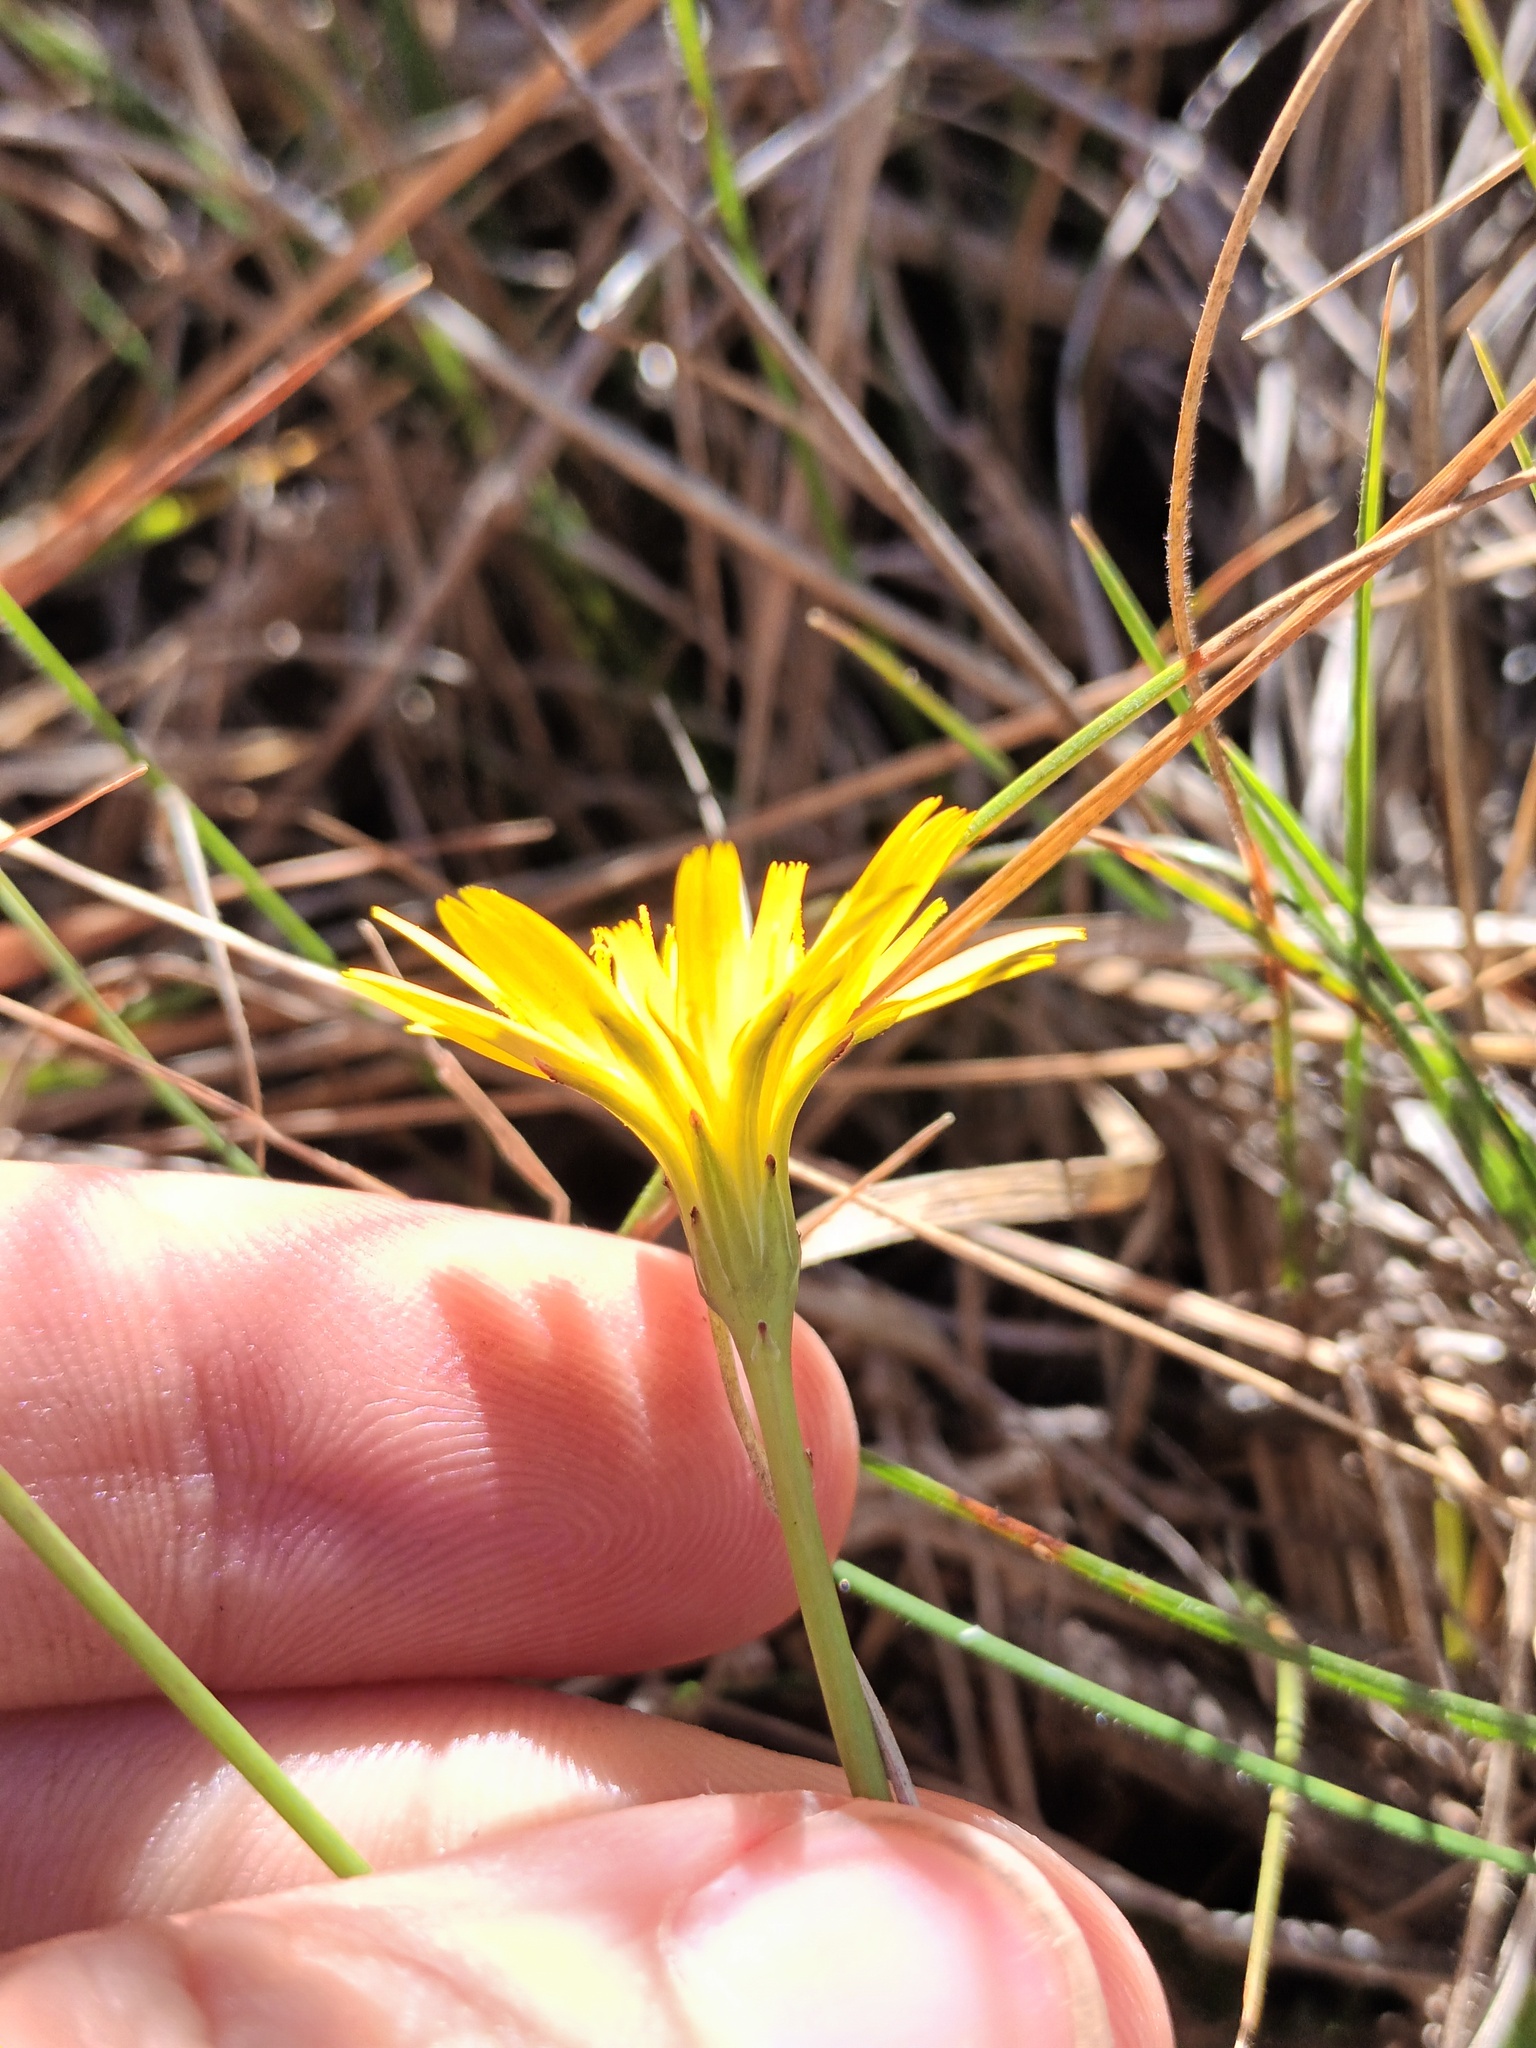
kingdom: Plantae
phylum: Tracheophyta
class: Magnoliopsida
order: Asterales
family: Asteraceae
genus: Hypochaeris
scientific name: Hypochaeris radicata
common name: Flatweed
